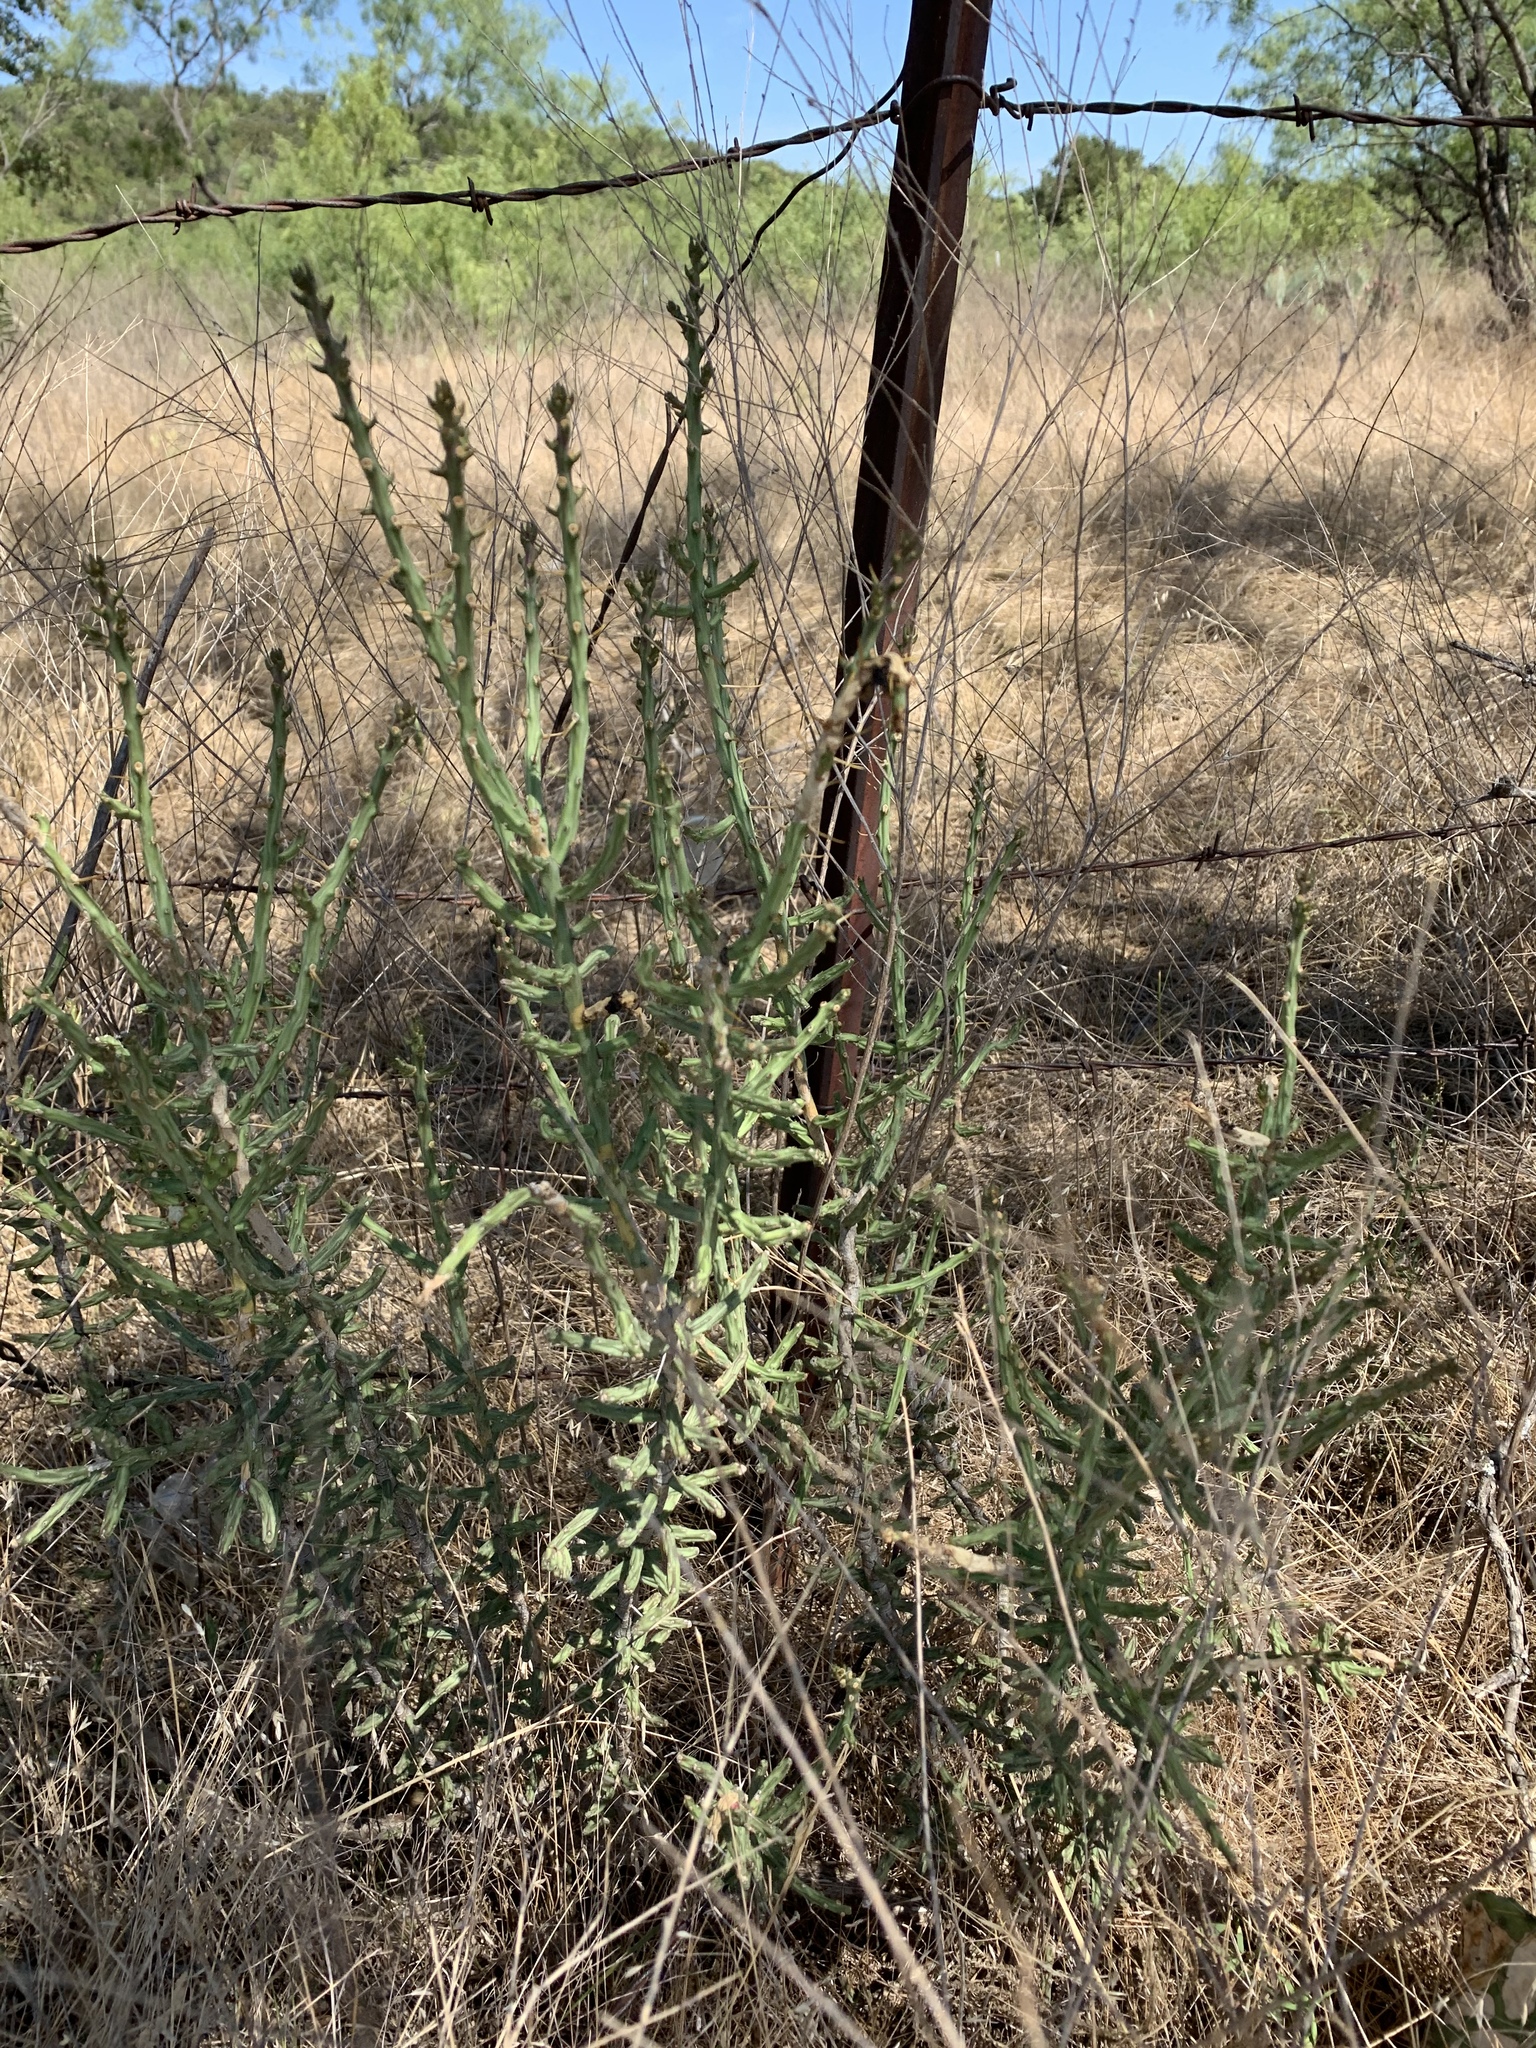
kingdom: Plantae
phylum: Tracheophyta
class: Magnoliopsida
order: Caryophyllales
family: Cactaceae
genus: Cylindropuntia
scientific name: Cylindropuntia leptocaulis
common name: Christmas cactus
